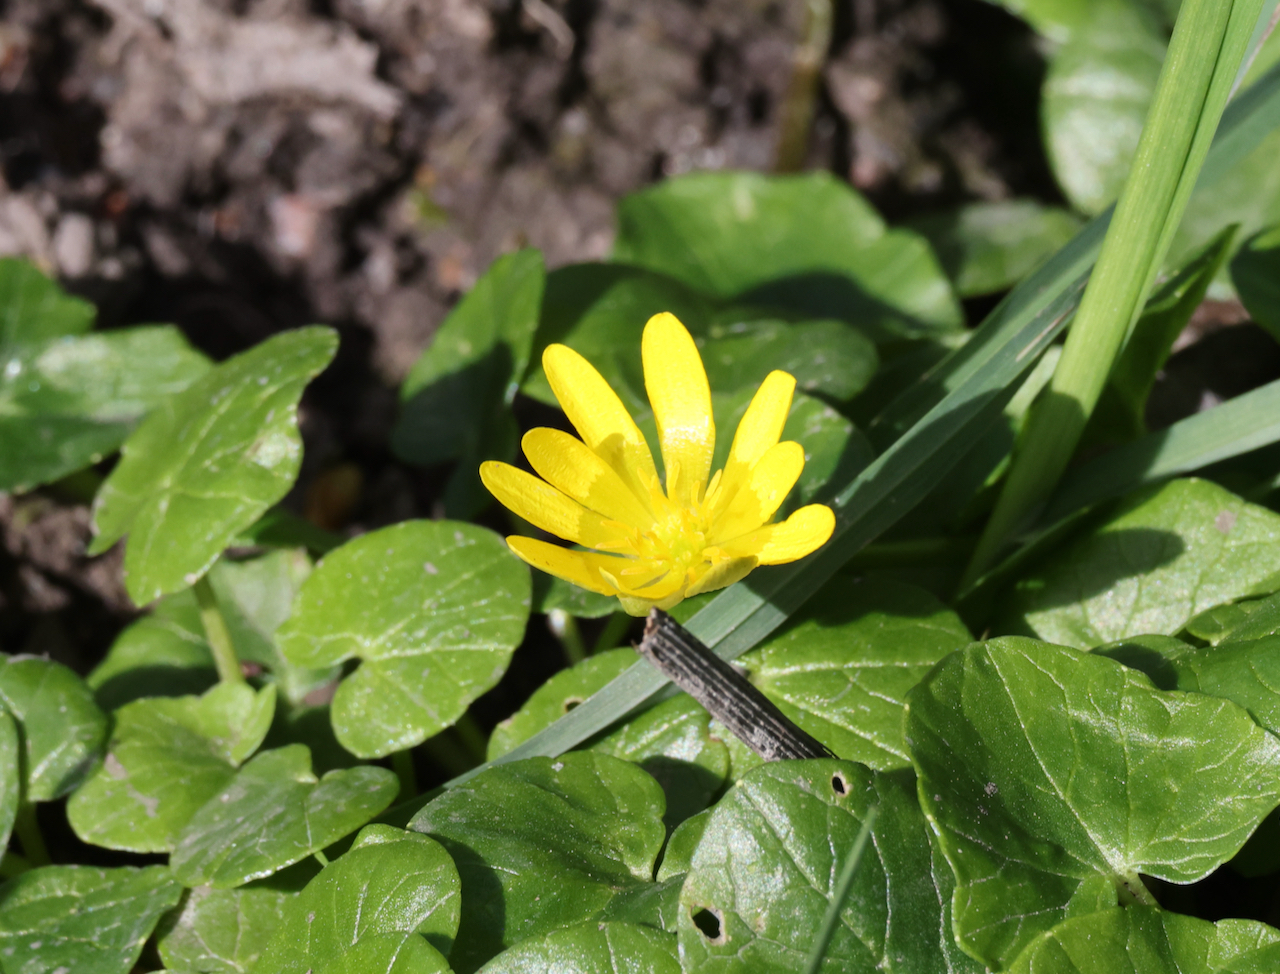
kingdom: Plantae
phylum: Tracheophyta
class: Magnoliopsida
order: Ranunculales
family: Ranunculaceae
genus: Ficaria
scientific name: Ficaria verna
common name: Lesser celandine
